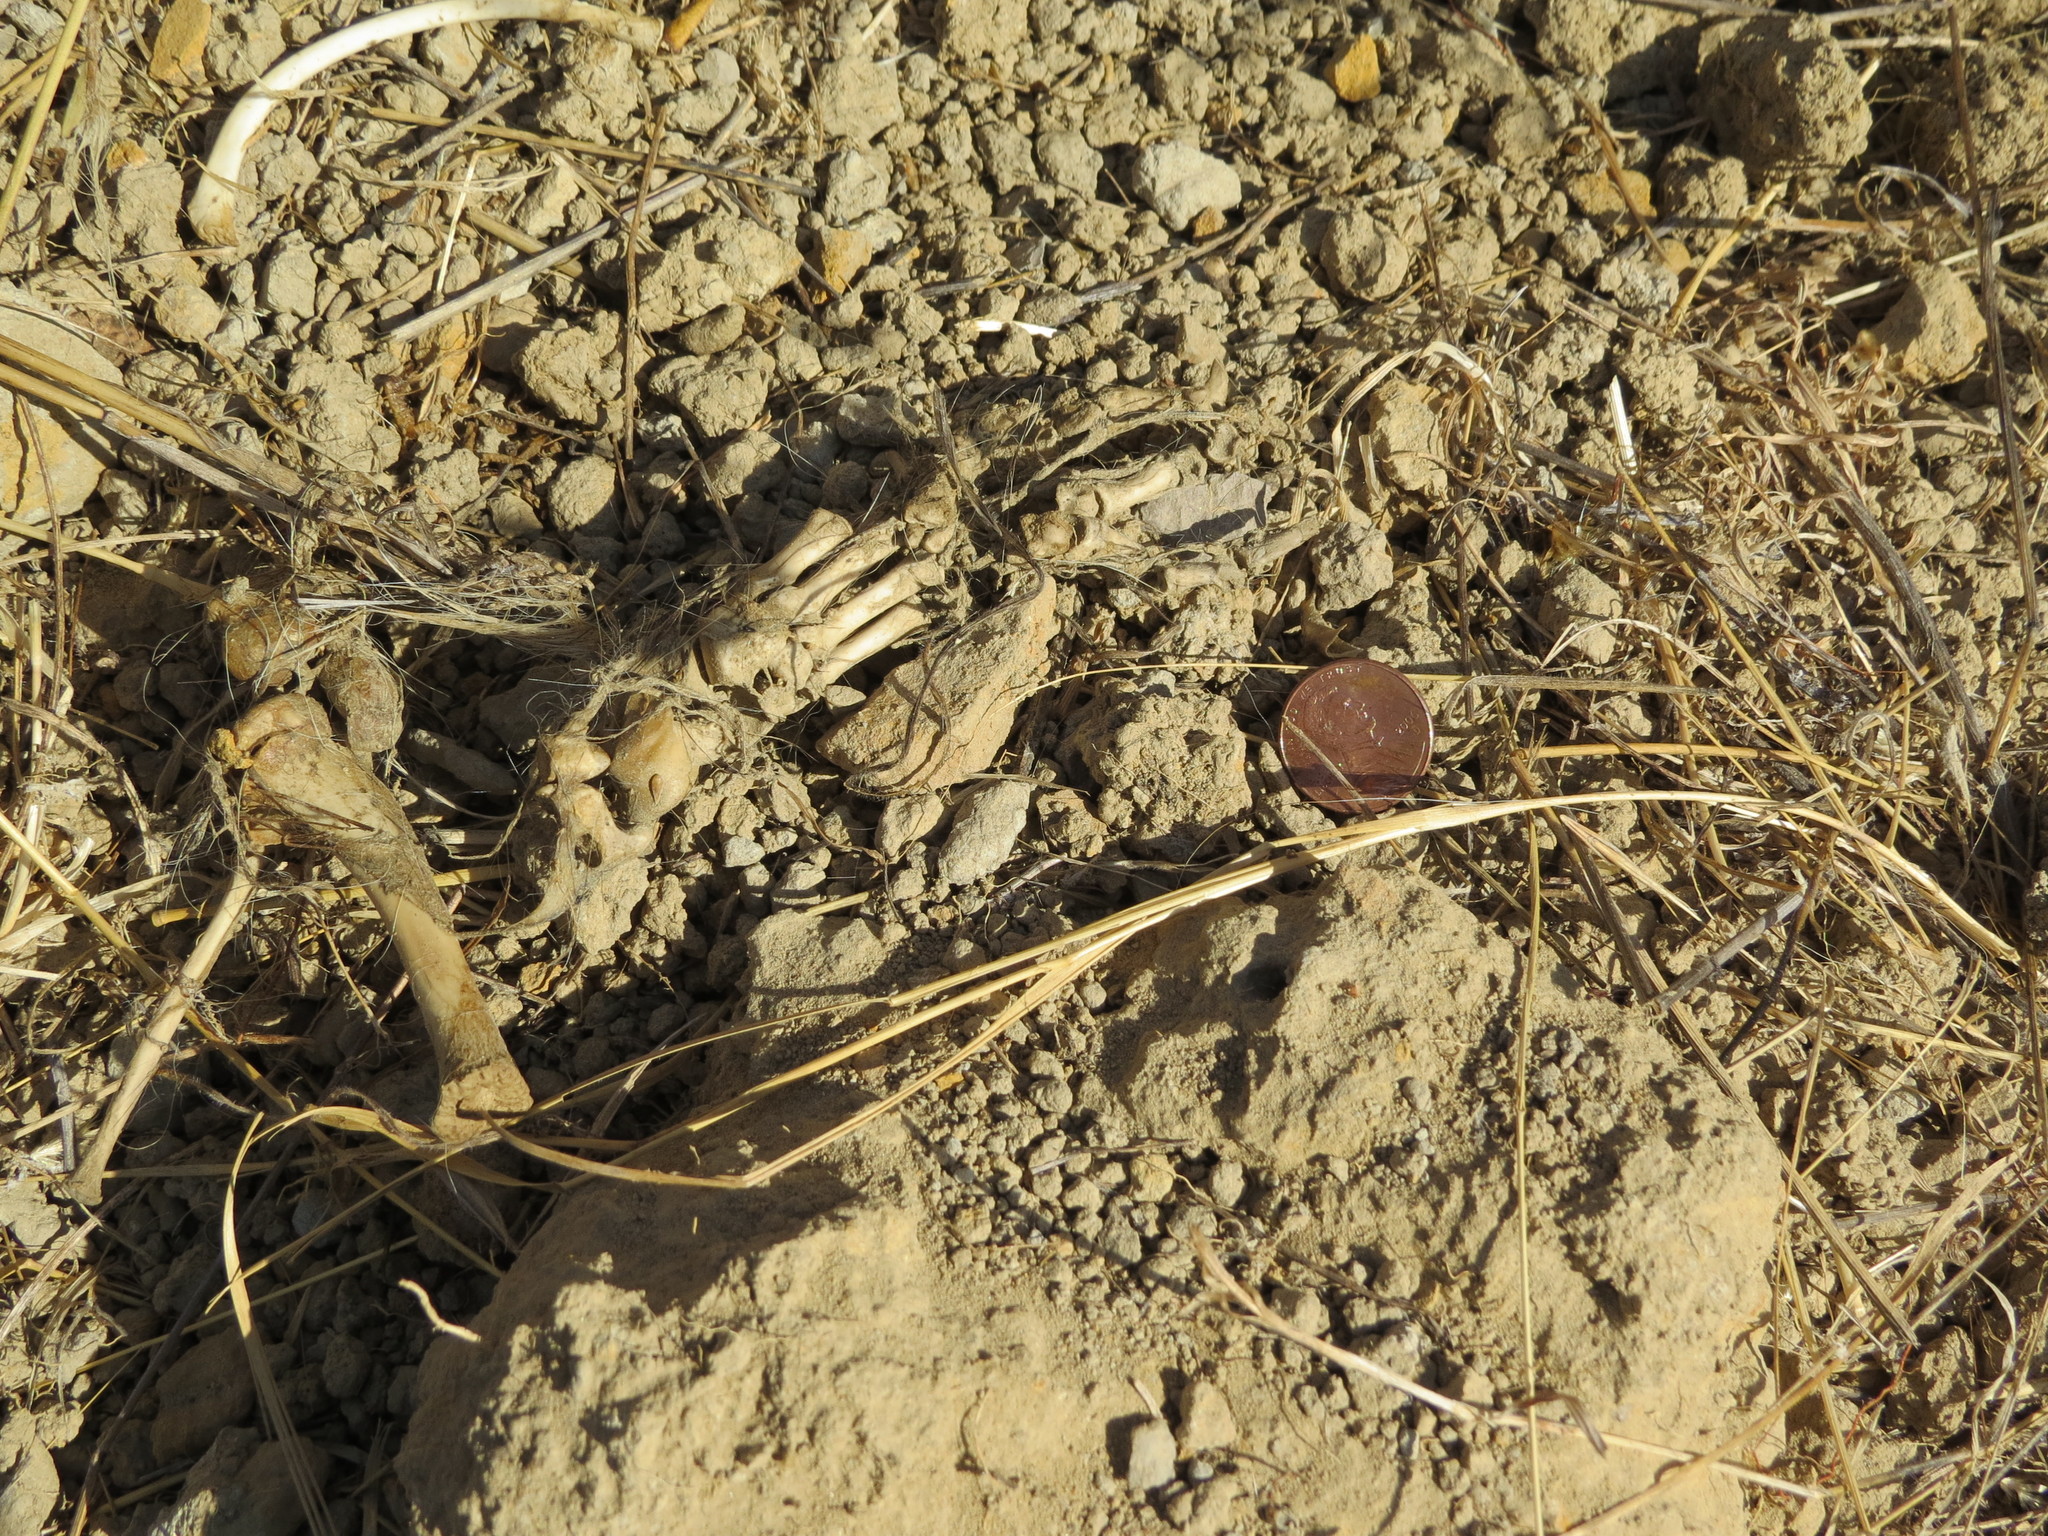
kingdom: Animalia
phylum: Chordata
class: Mammalia
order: Carnivora
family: Mustelidae
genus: Taxidea
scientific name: Taxidea taxus
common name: American badger
